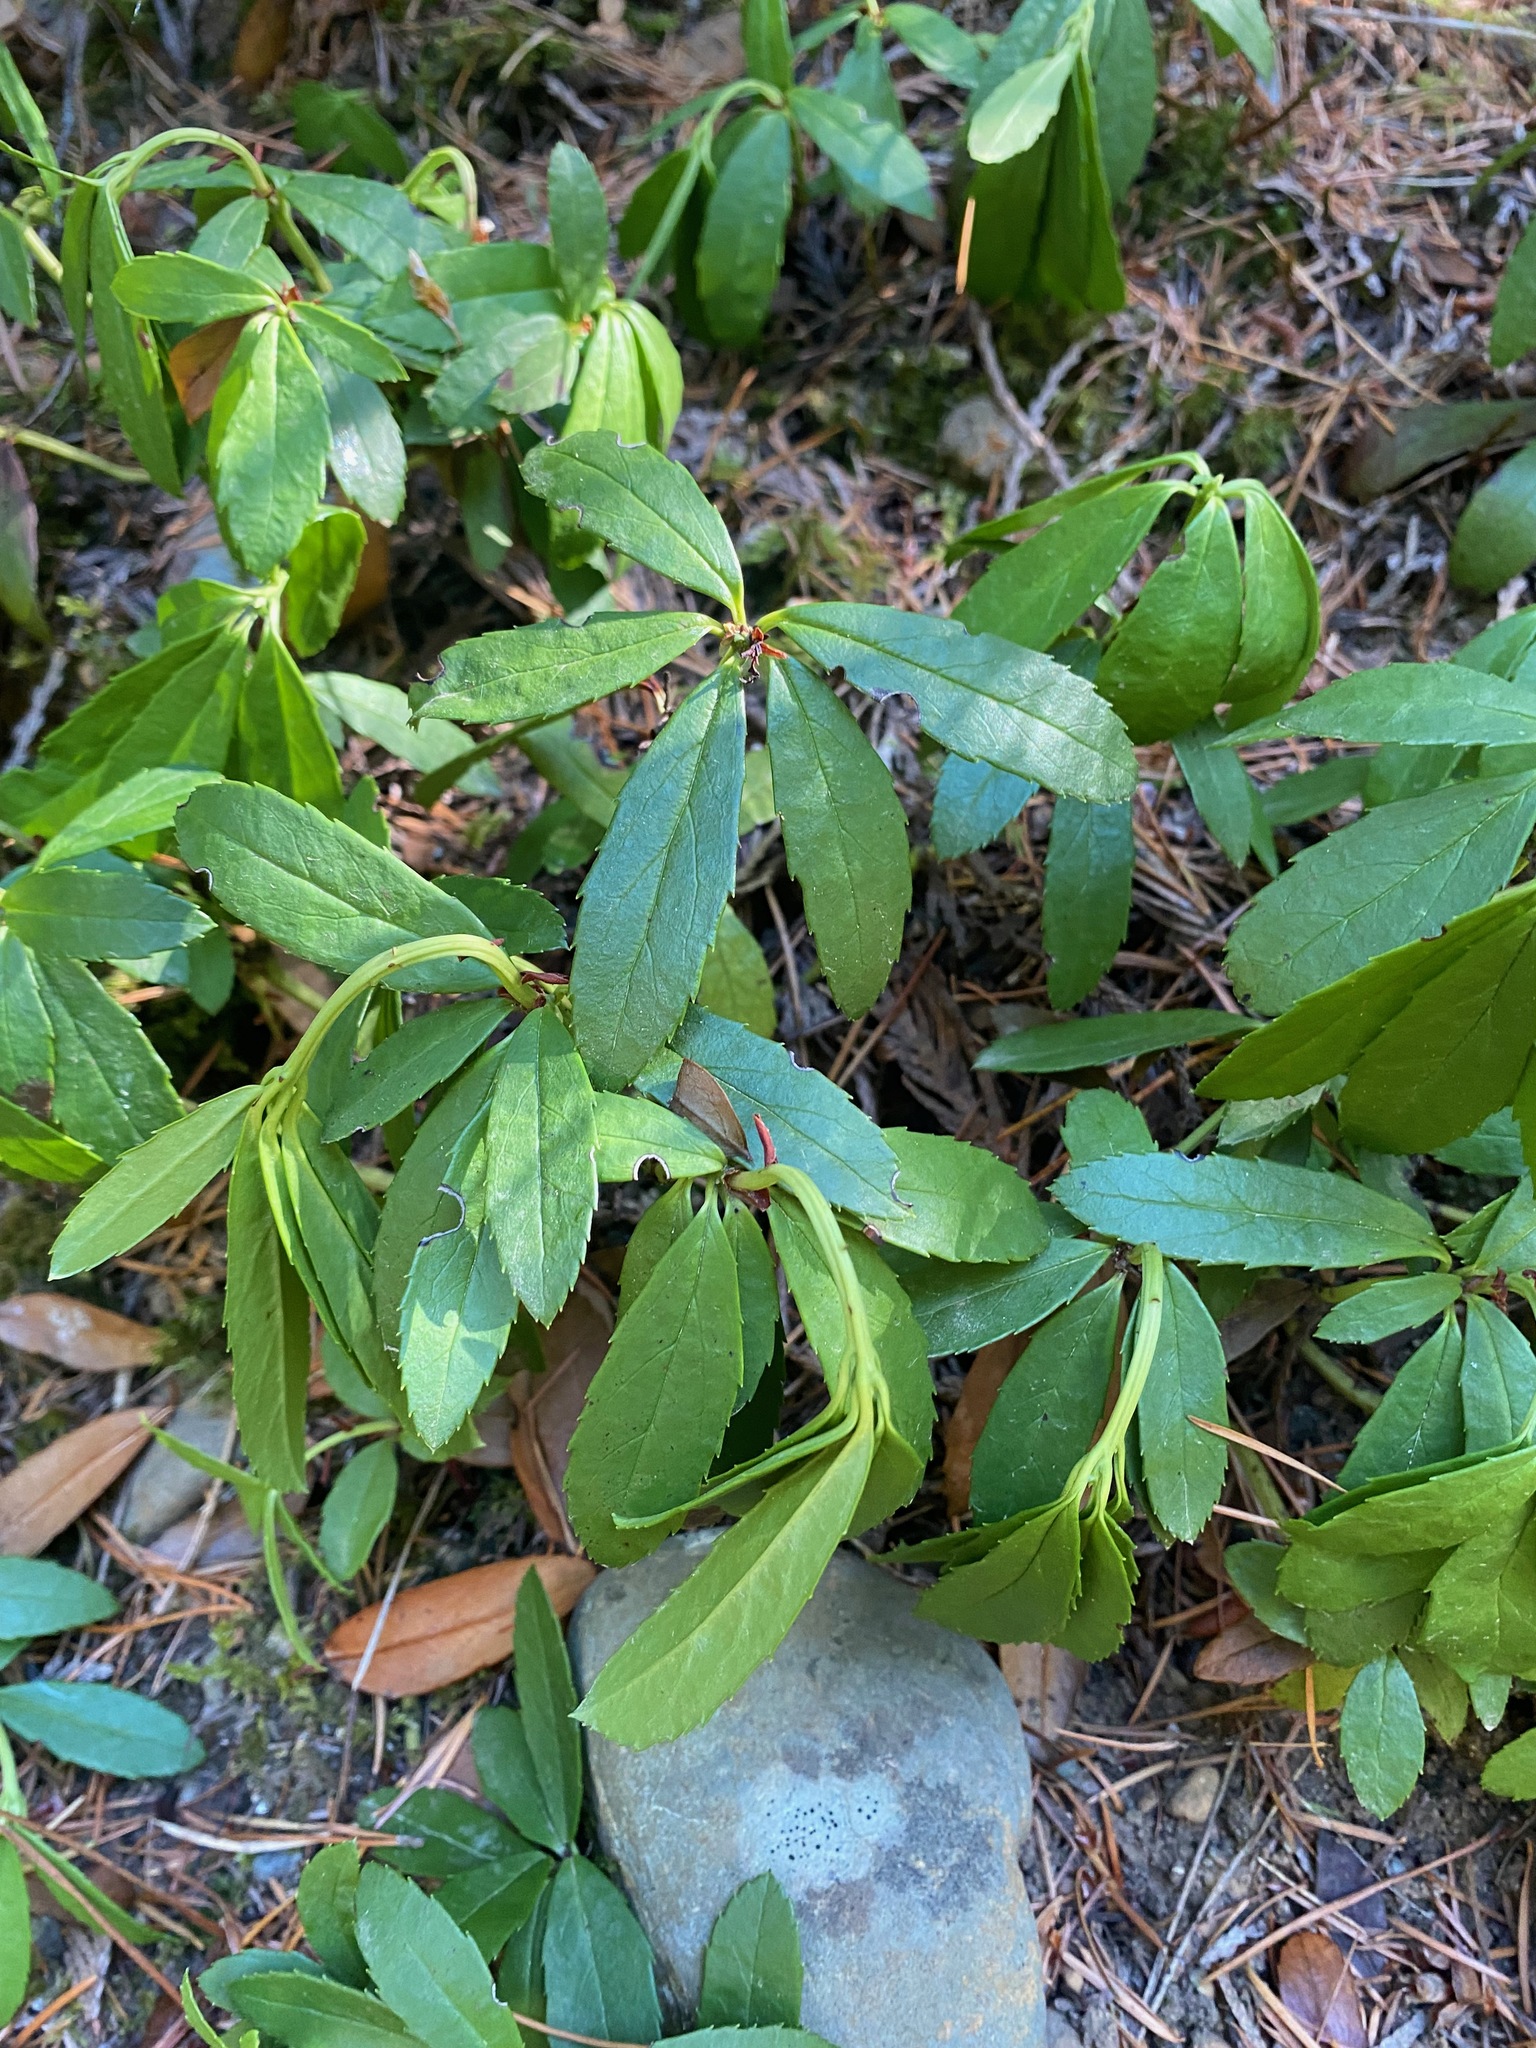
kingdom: Plantae
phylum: Tracheophyta
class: Magnoliopsida
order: Ericales
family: Ericaceae
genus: Chimaphila
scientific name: Chimaphila umbellata
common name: Pipsissewa
